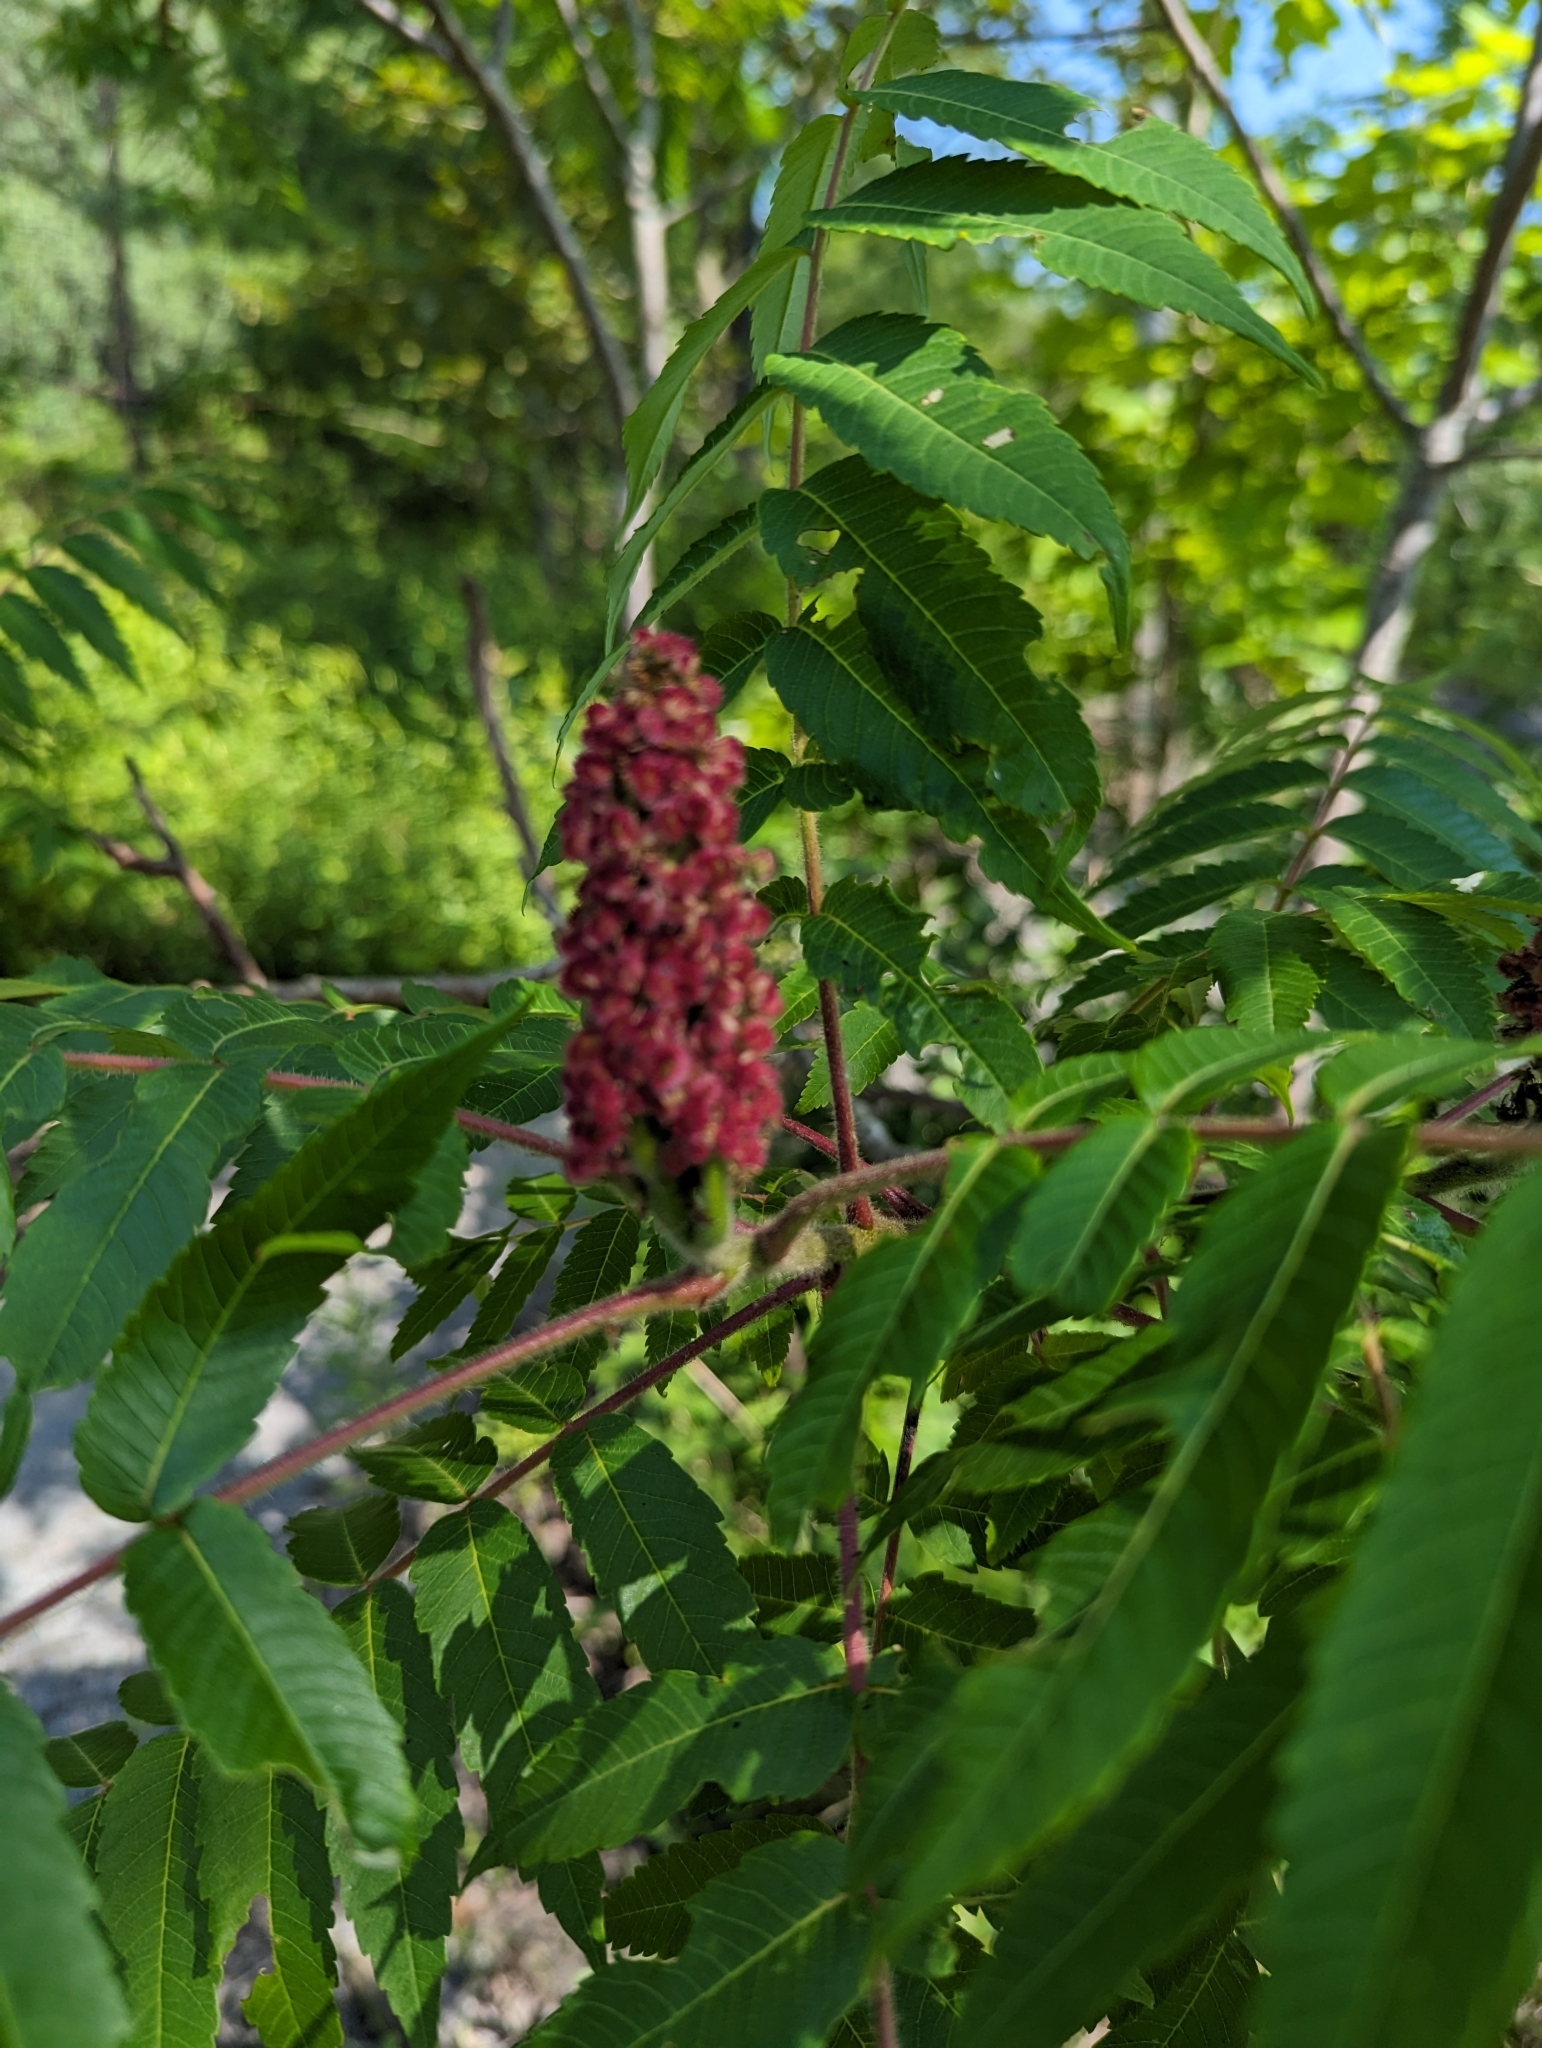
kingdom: Plantae
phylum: Tracheophyta
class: Magnoliopsida
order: Sapindales
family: Anacardiaceae
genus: Rhus
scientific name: Rhus typhina
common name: Staghorn sumac
